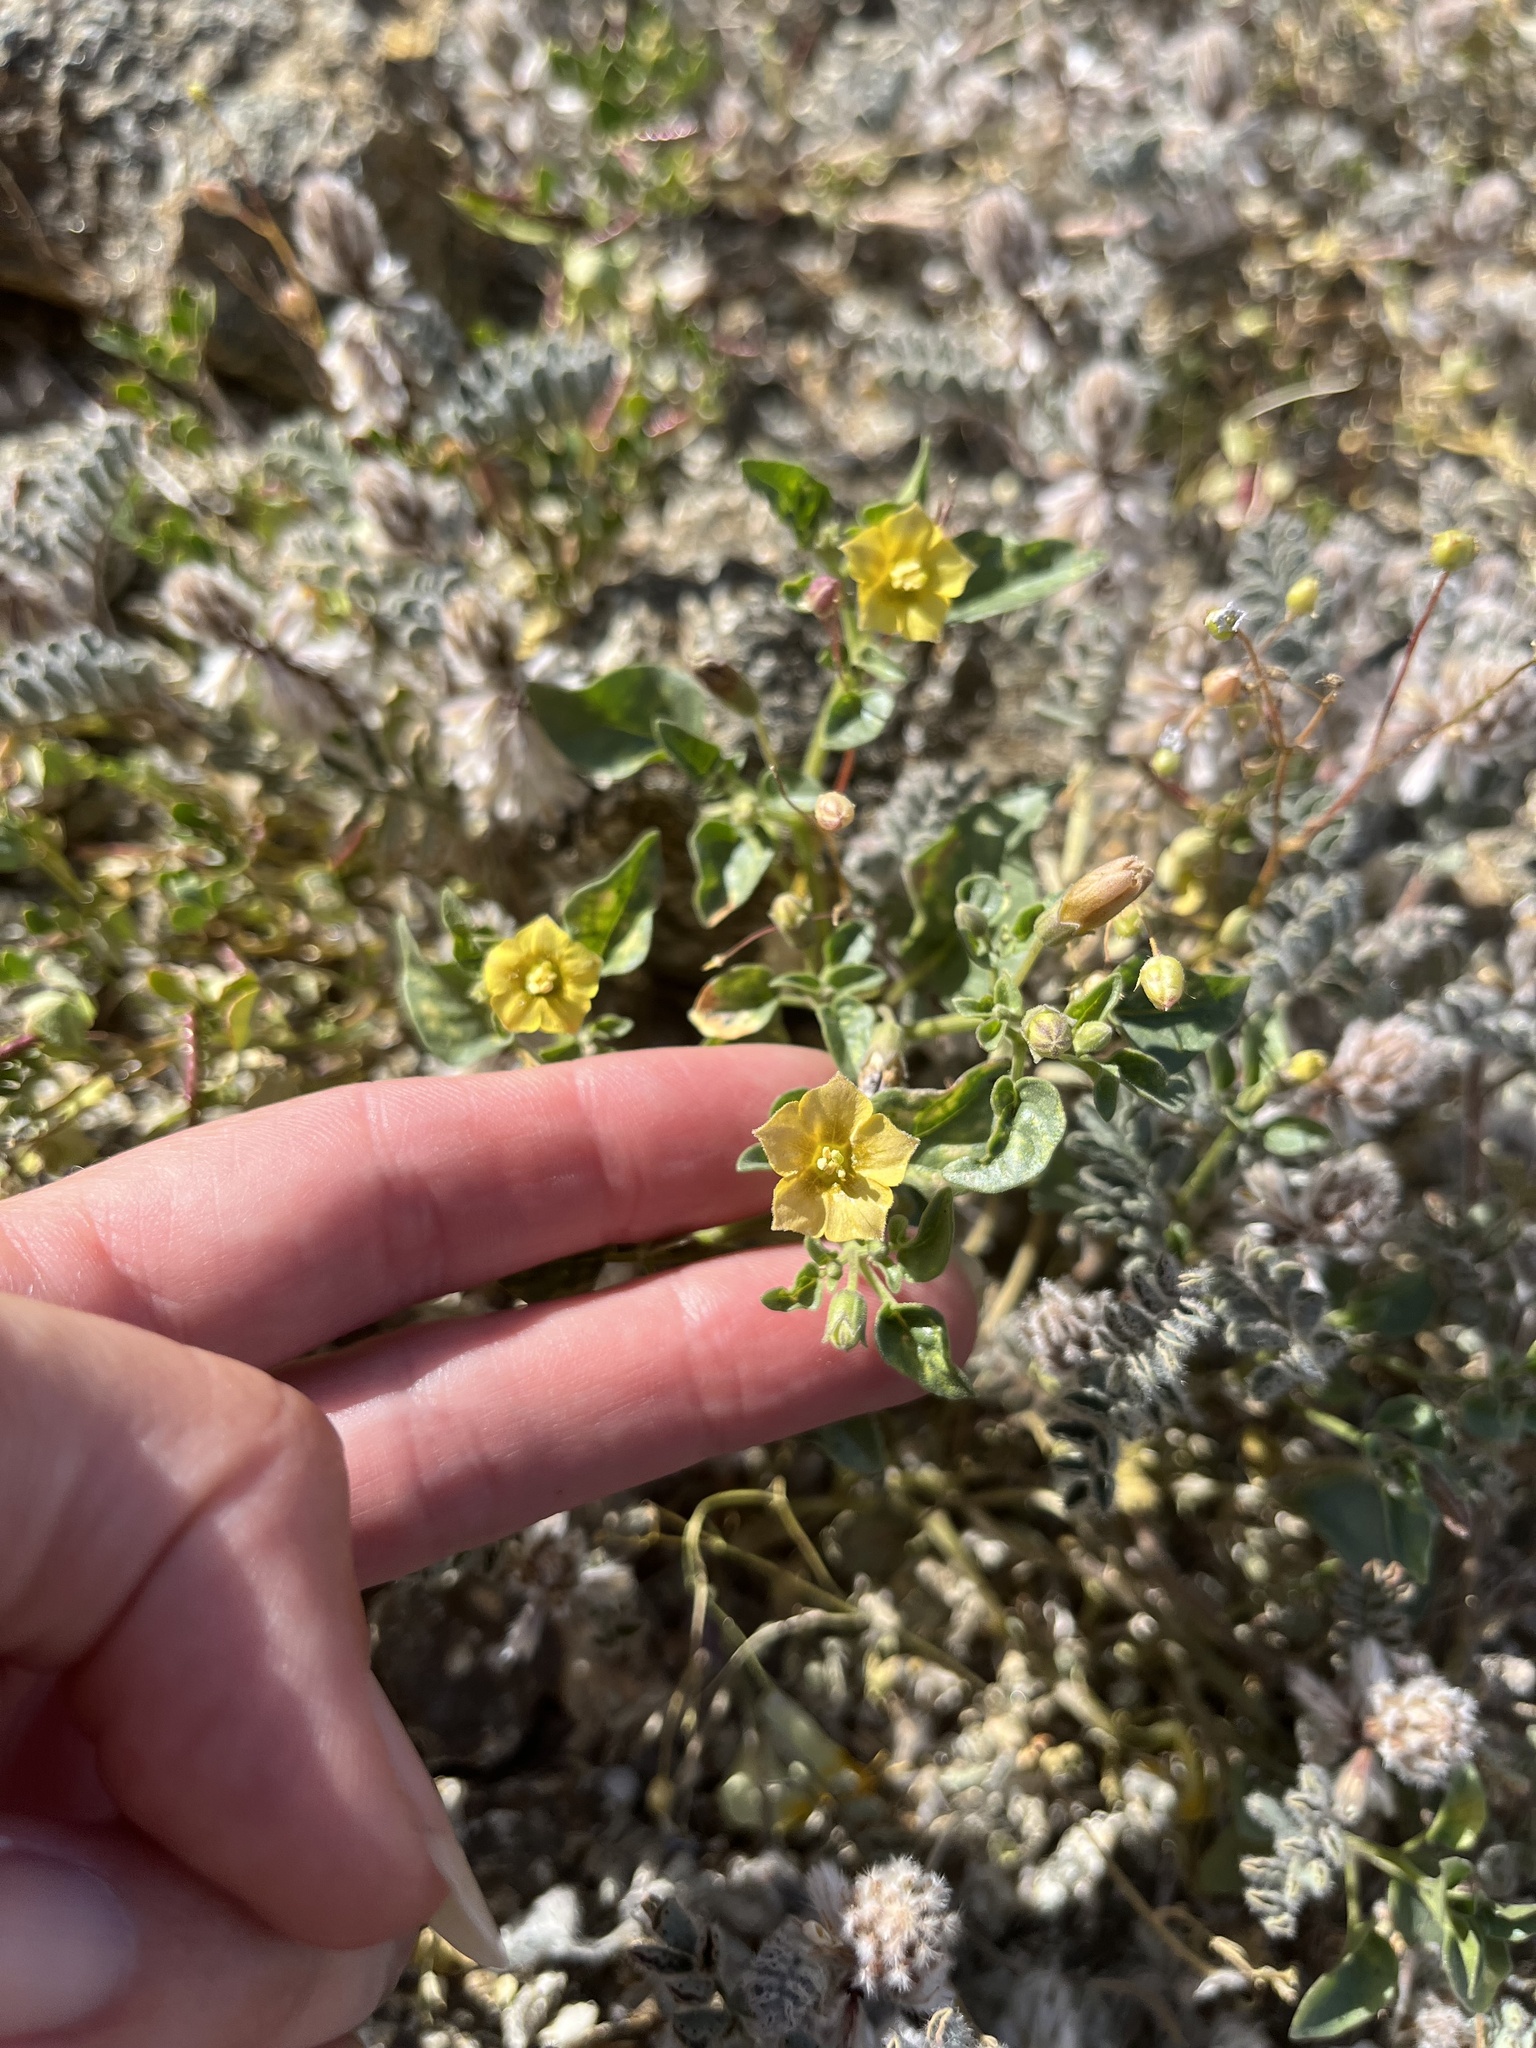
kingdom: Plantae
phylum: Tracheophyta
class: Magnoliopsida
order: Solanales
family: Solanaceae
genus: Physalis
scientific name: Physalis crassifolia
